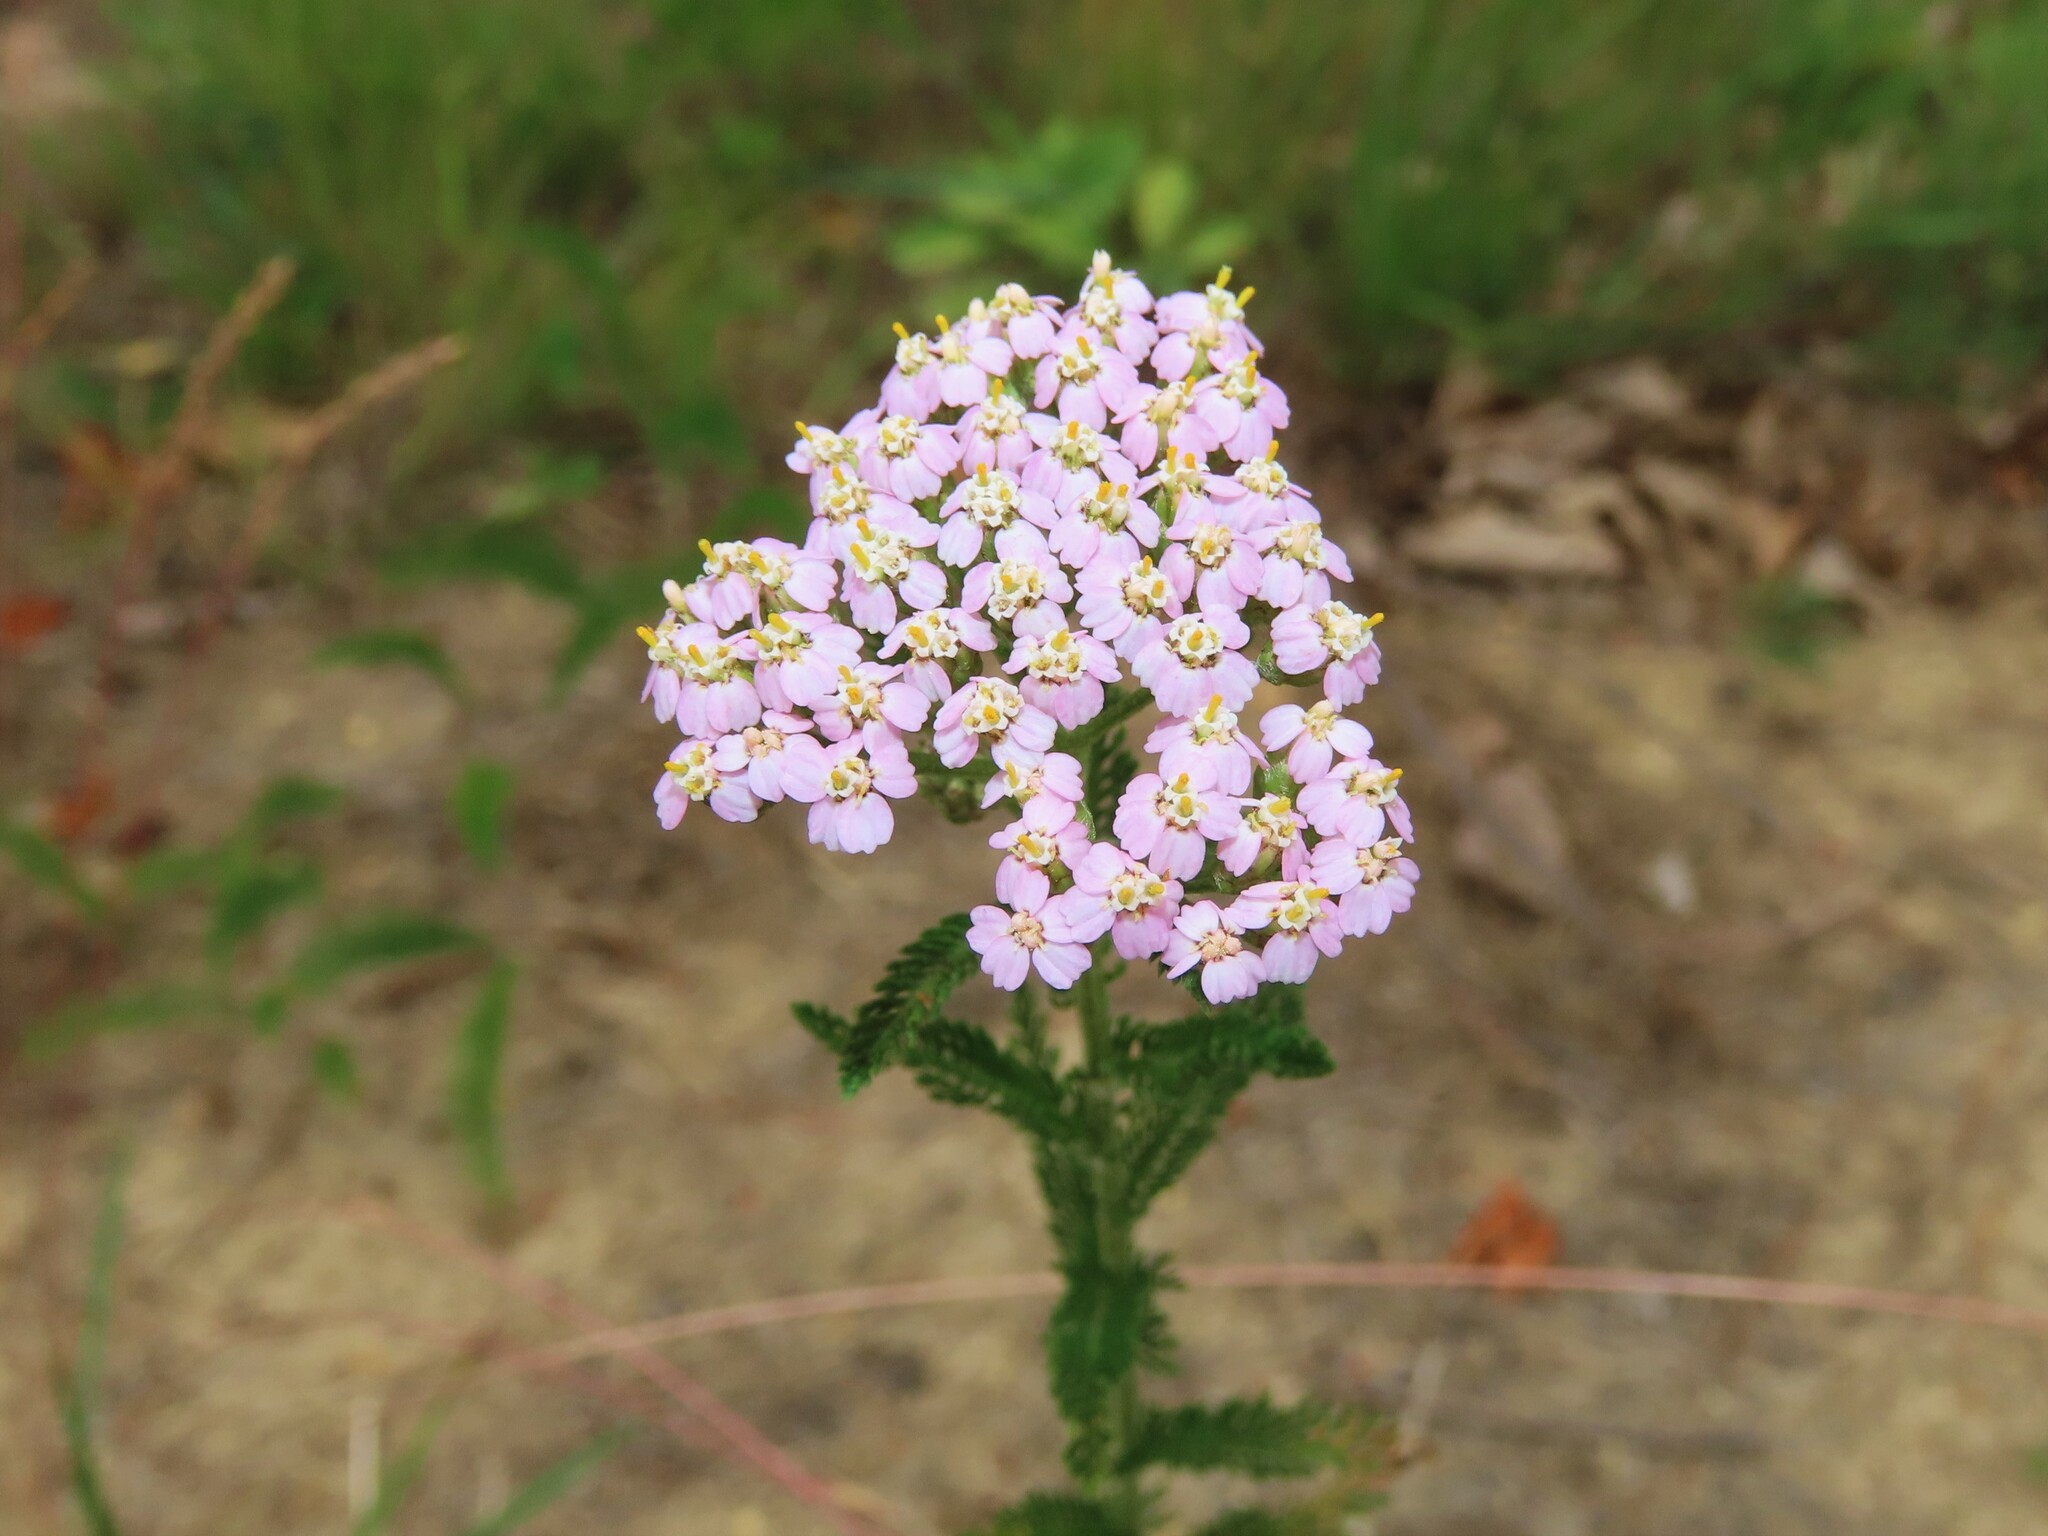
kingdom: Plantae
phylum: Tracheophyta
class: Magnoliopsida
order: Asterales
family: Asteraceae
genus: Achillea
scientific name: Achillea millefolium
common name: Yarrow
